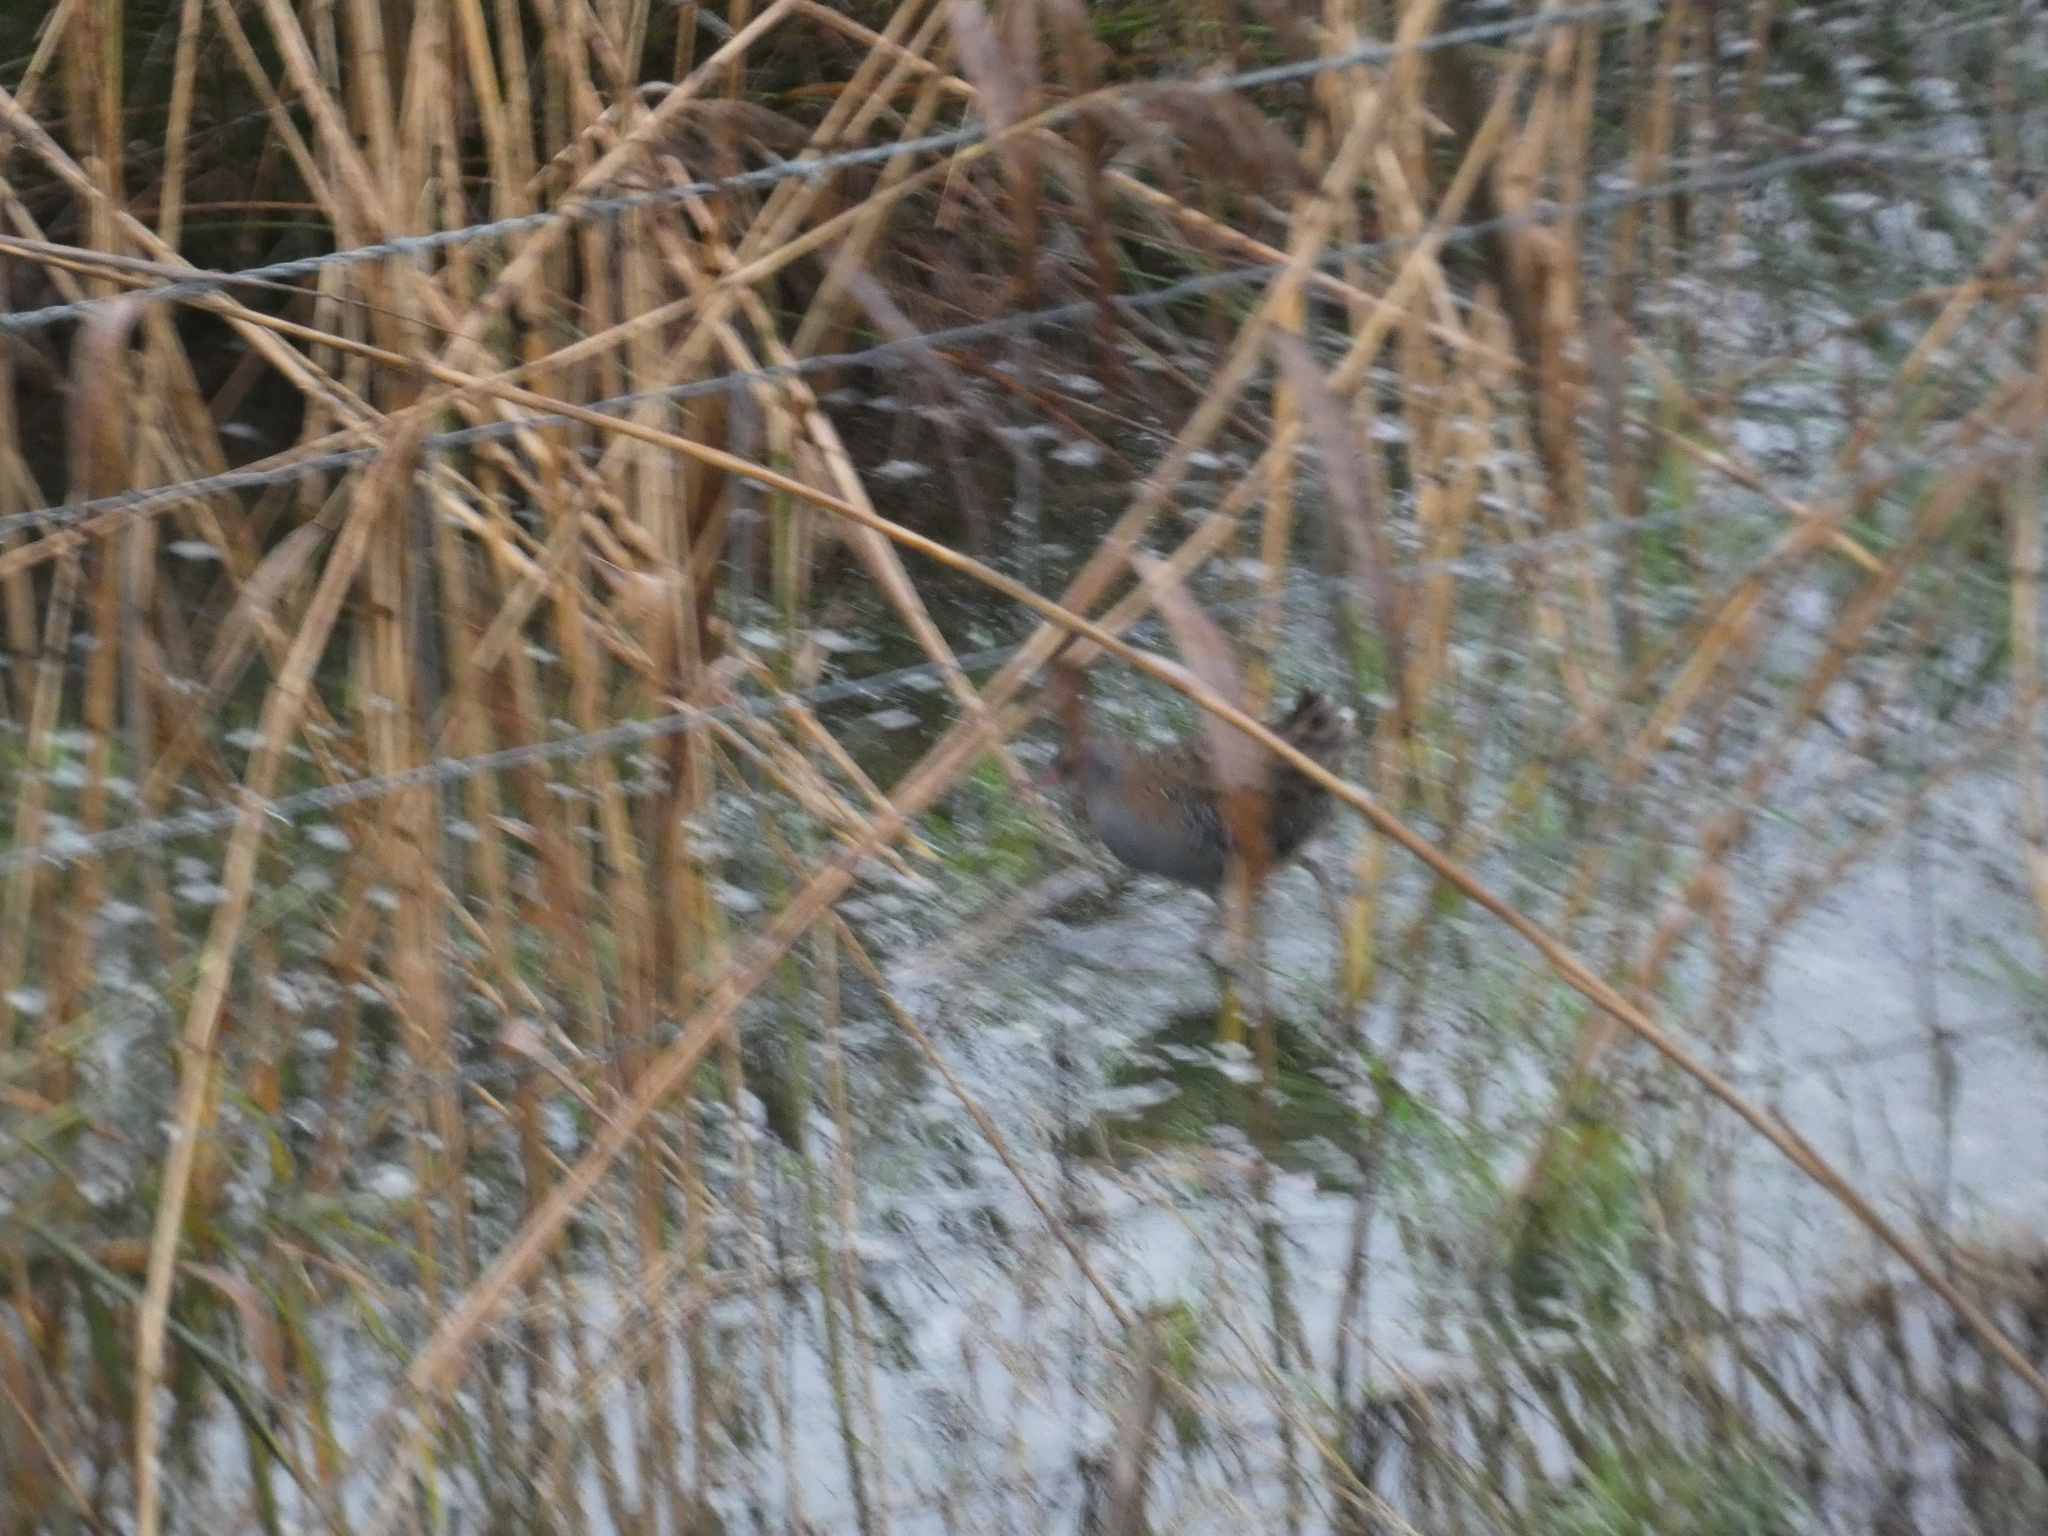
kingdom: Animalia
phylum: Chordata
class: Aves
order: Gruiformes
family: Rallidae
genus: Rallus
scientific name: Rallus aquaticus
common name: Water rail
